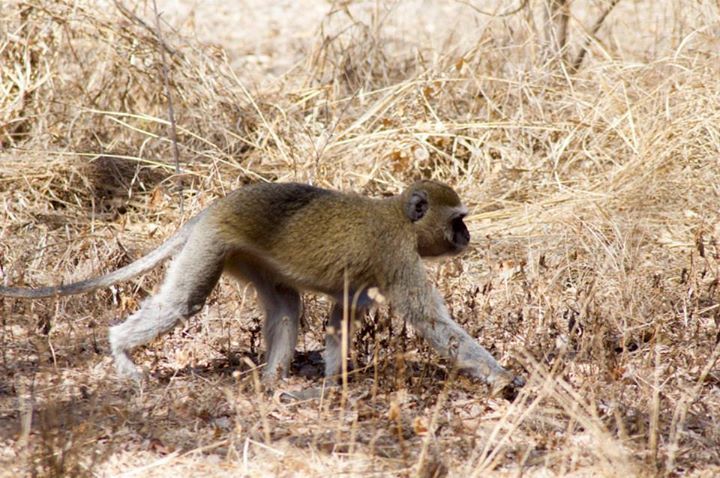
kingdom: Animalia
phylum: Chordata
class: Mammalia
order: Primates
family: Cercopithecidae
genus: Chlorocebus
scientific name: Chlorocebus cynosuros
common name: Malbrouck
